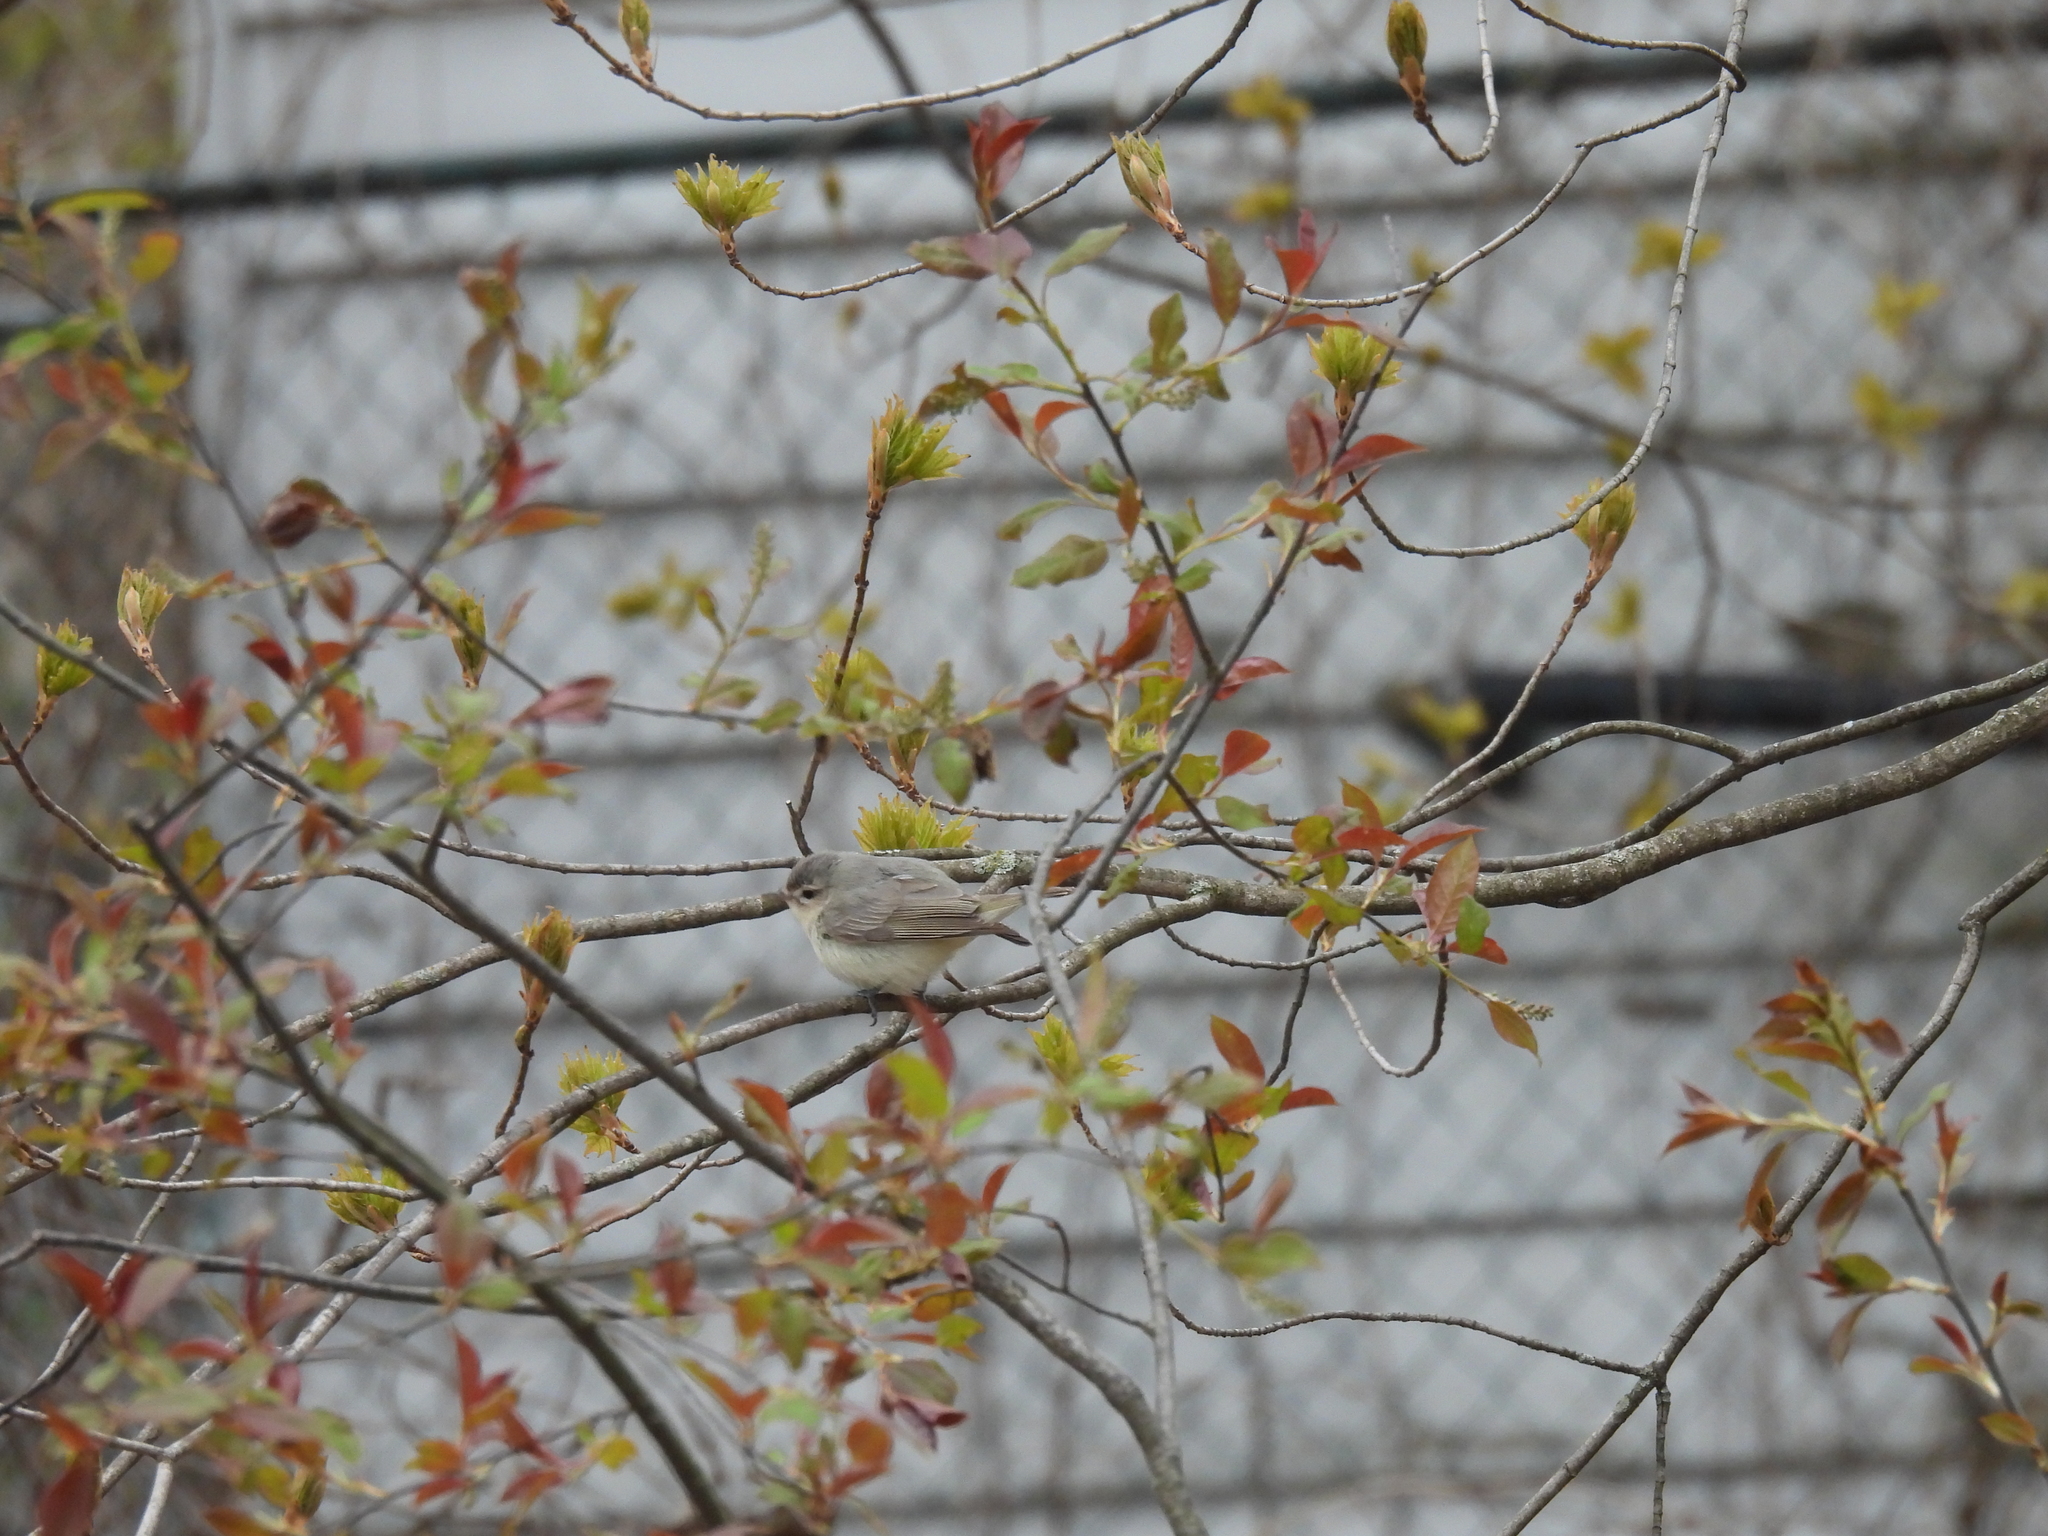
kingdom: Animalia
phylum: Chordata
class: Aves
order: Passeriformes
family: Vireonidae
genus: Vireo
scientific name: Vireo gilvus
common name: Warbling vireo
